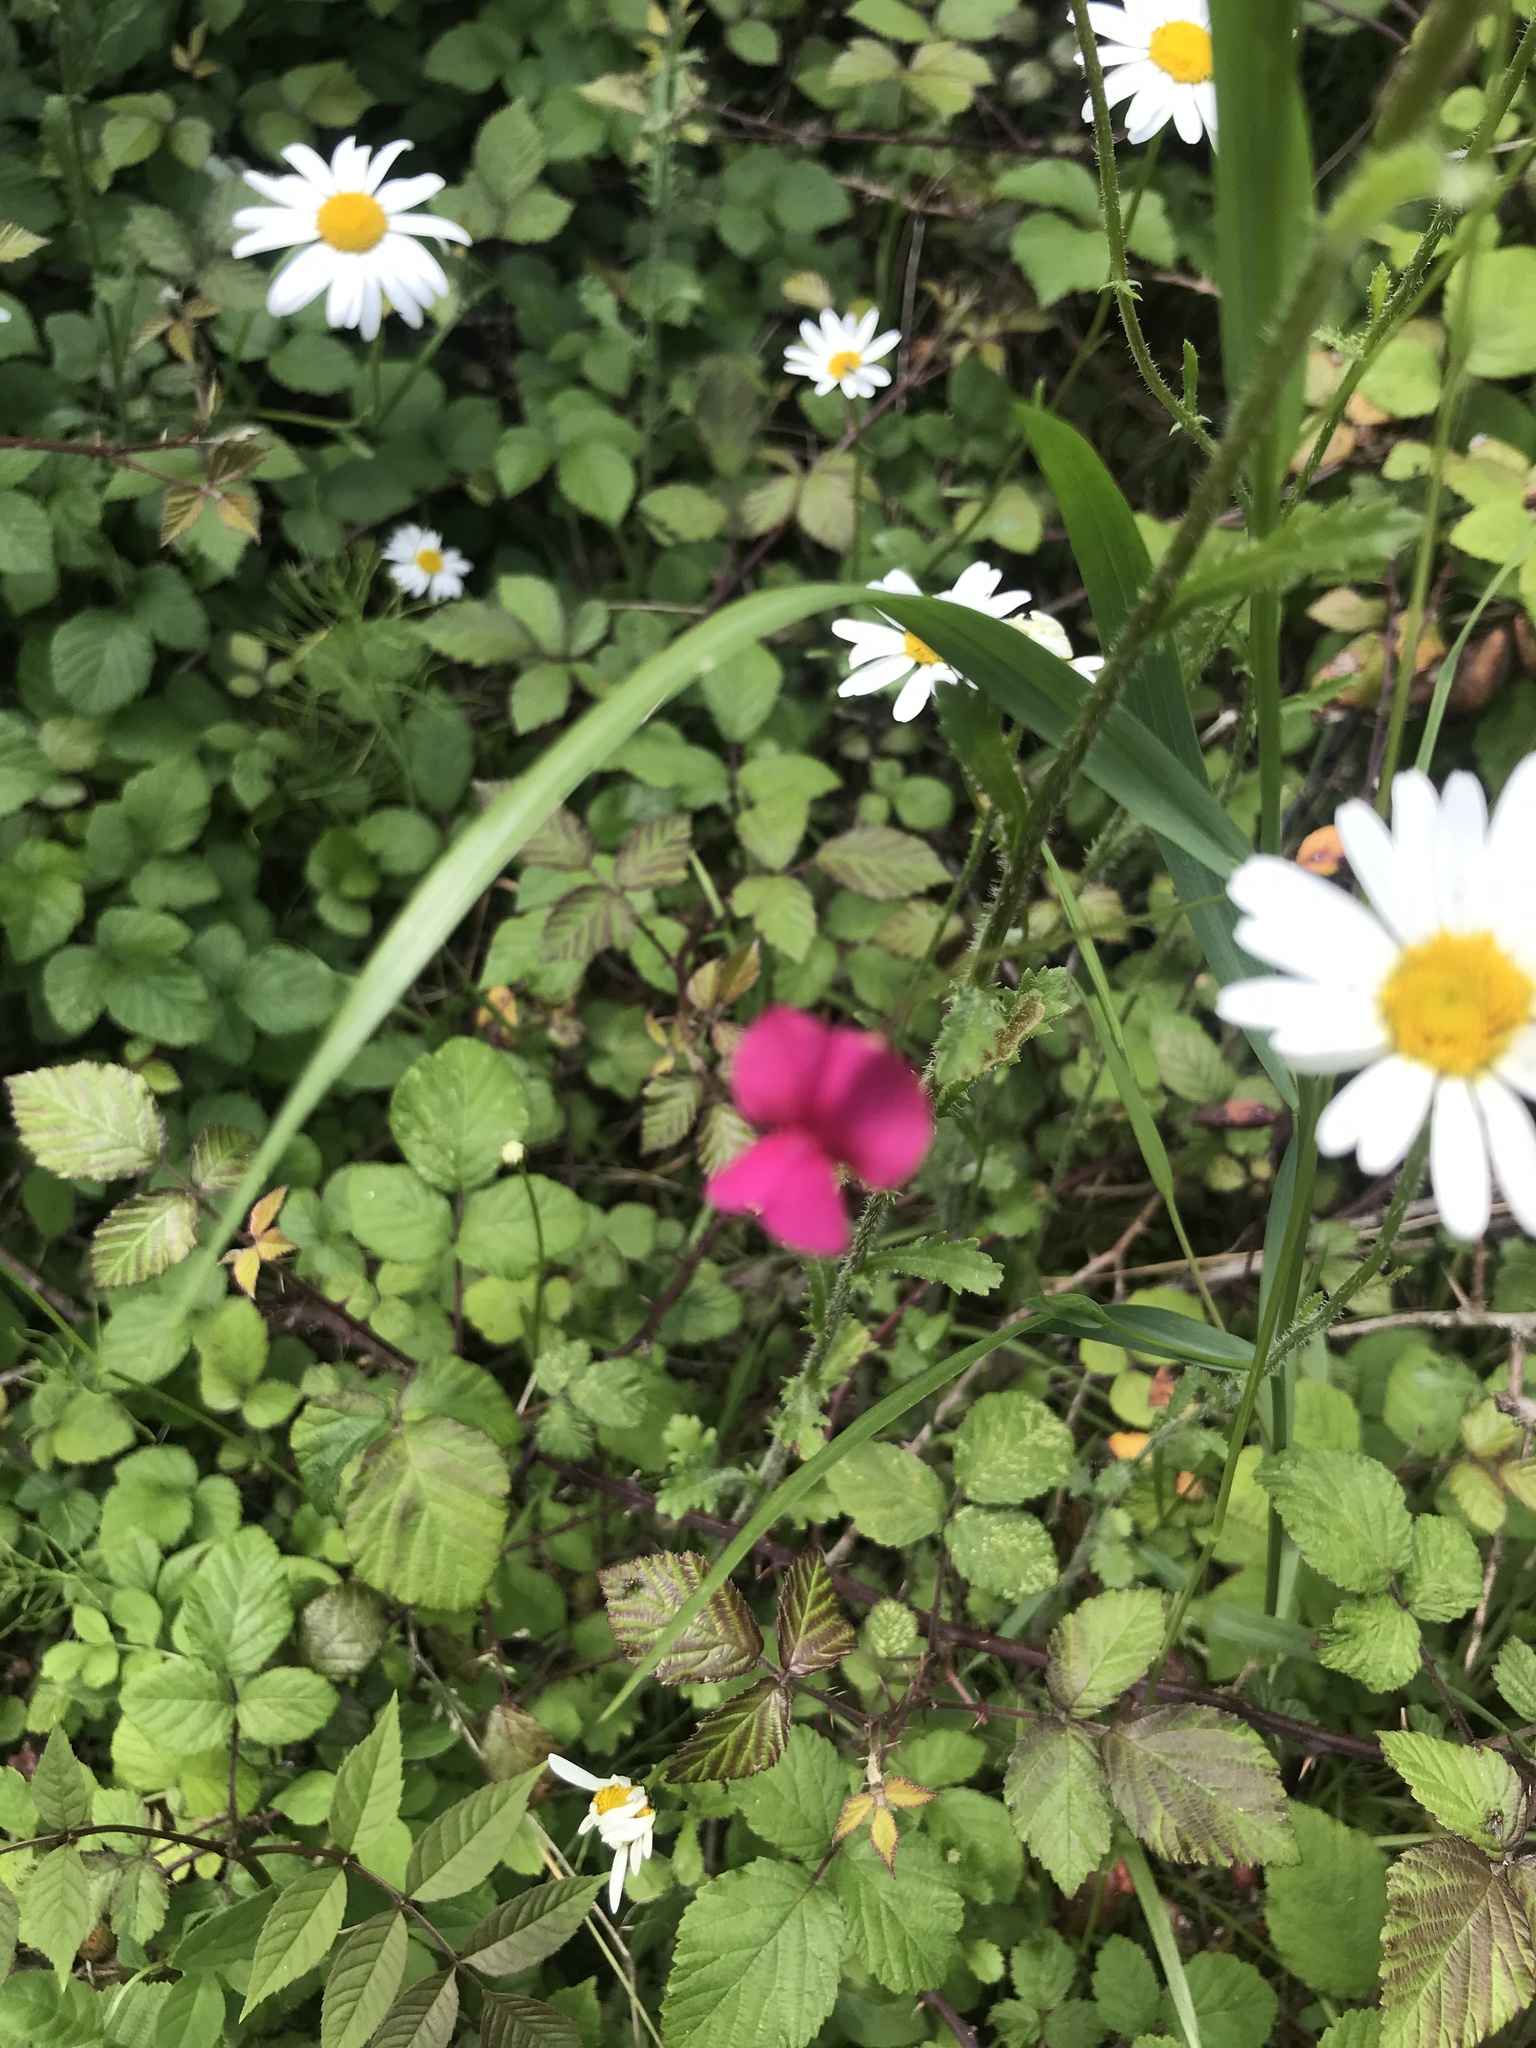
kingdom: Plantae
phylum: Tracheophyta
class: Magnoliopsida
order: Fabales
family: Fabaceae
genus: Lathyrus
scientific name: Lathyrus nissolia
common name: Grass vetchling
